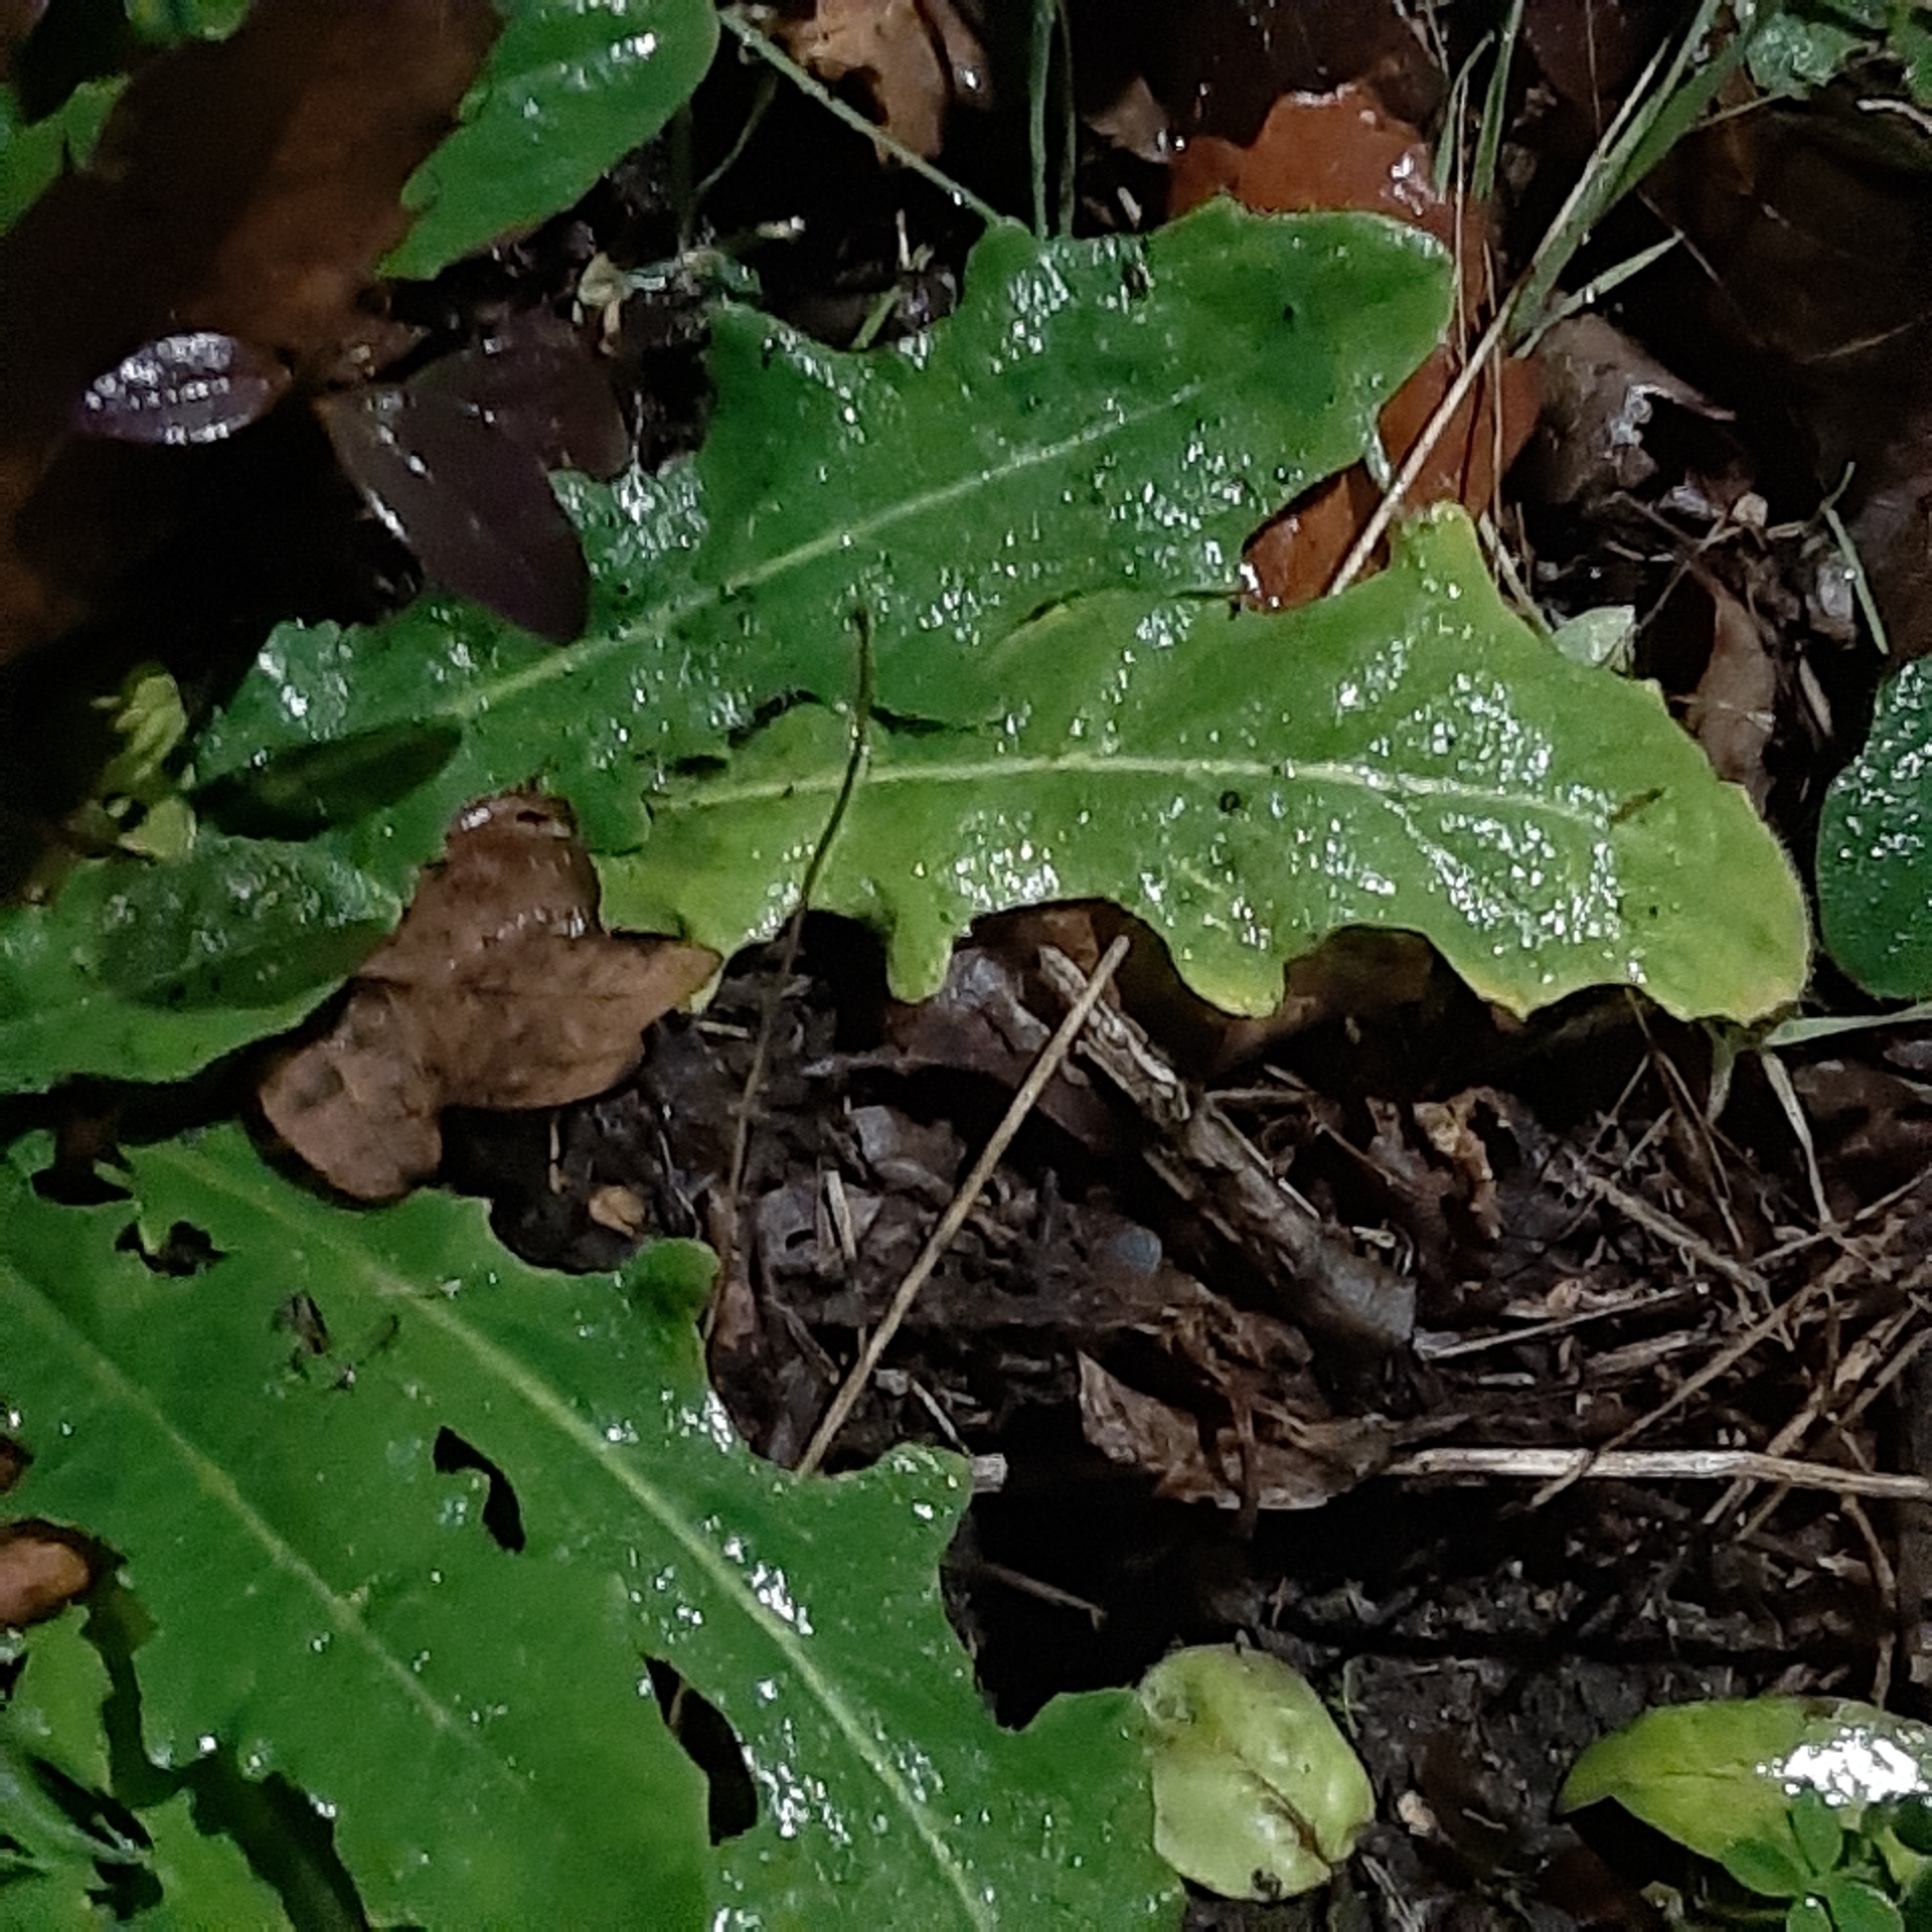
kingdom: Plantae
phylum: Tracheophyta
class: Magnoliopsida
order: Asterales
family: Asteraceae
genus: Hypochaeris
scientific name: Hypochaeris radicata
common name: Flatweed
